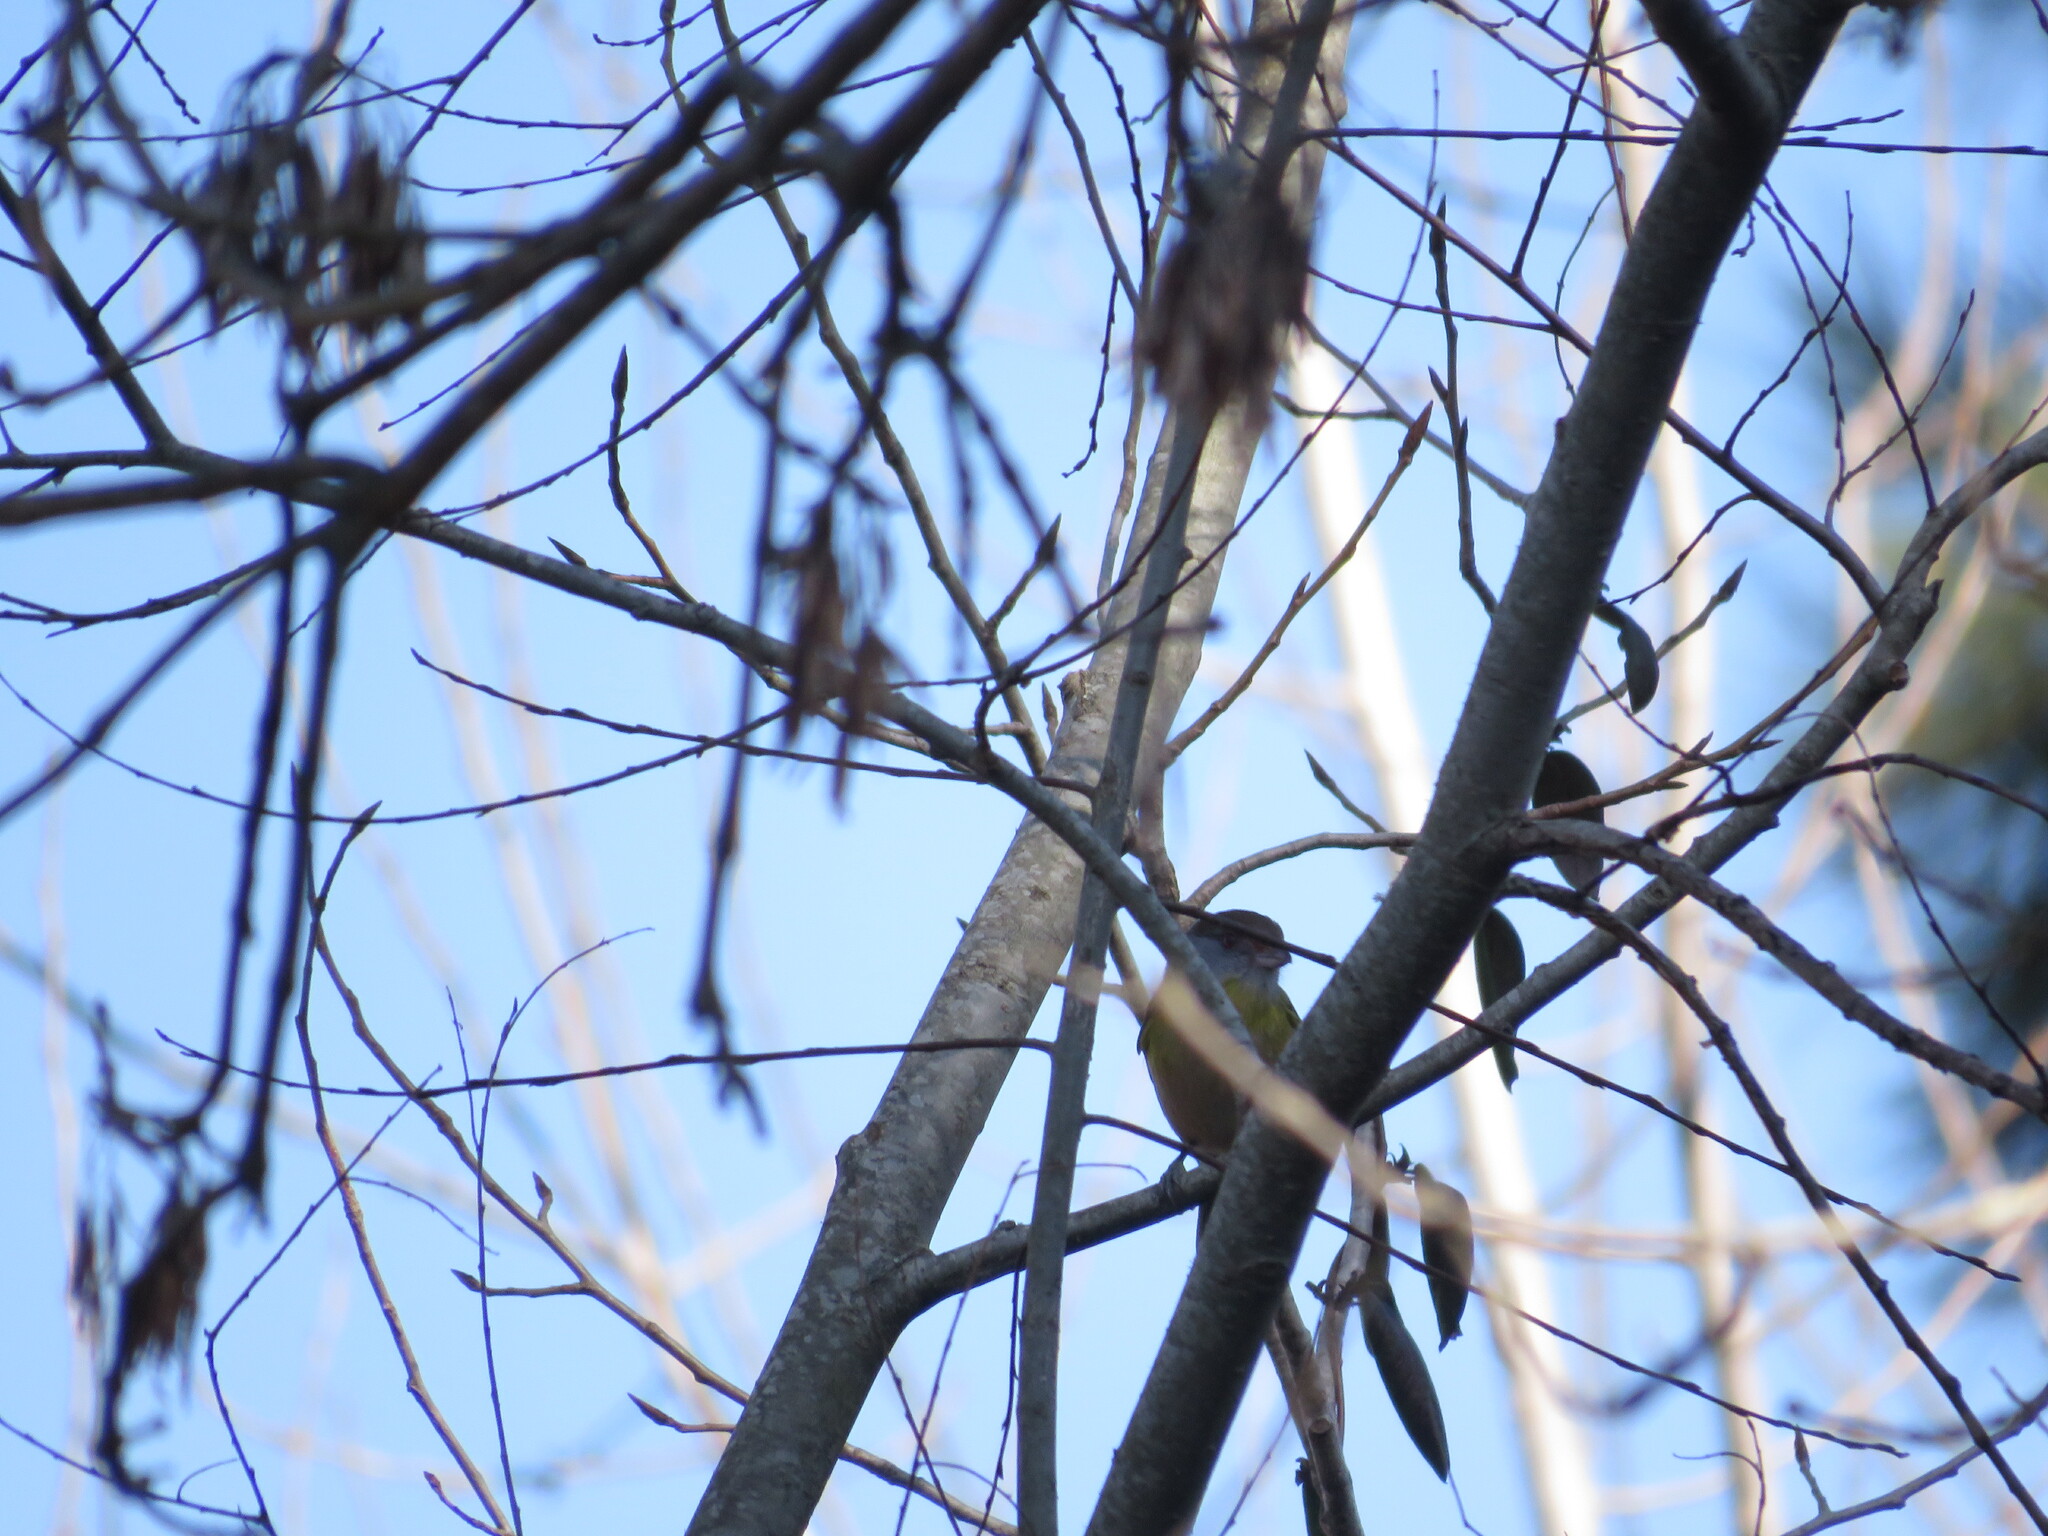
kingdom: Animalia
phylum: Chordata
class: Aves
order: Passeriformes
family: Vireonidae
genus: Cyclarhis
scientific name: Cyclarhis gujanensis
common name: Rufous-browed peppershrike
